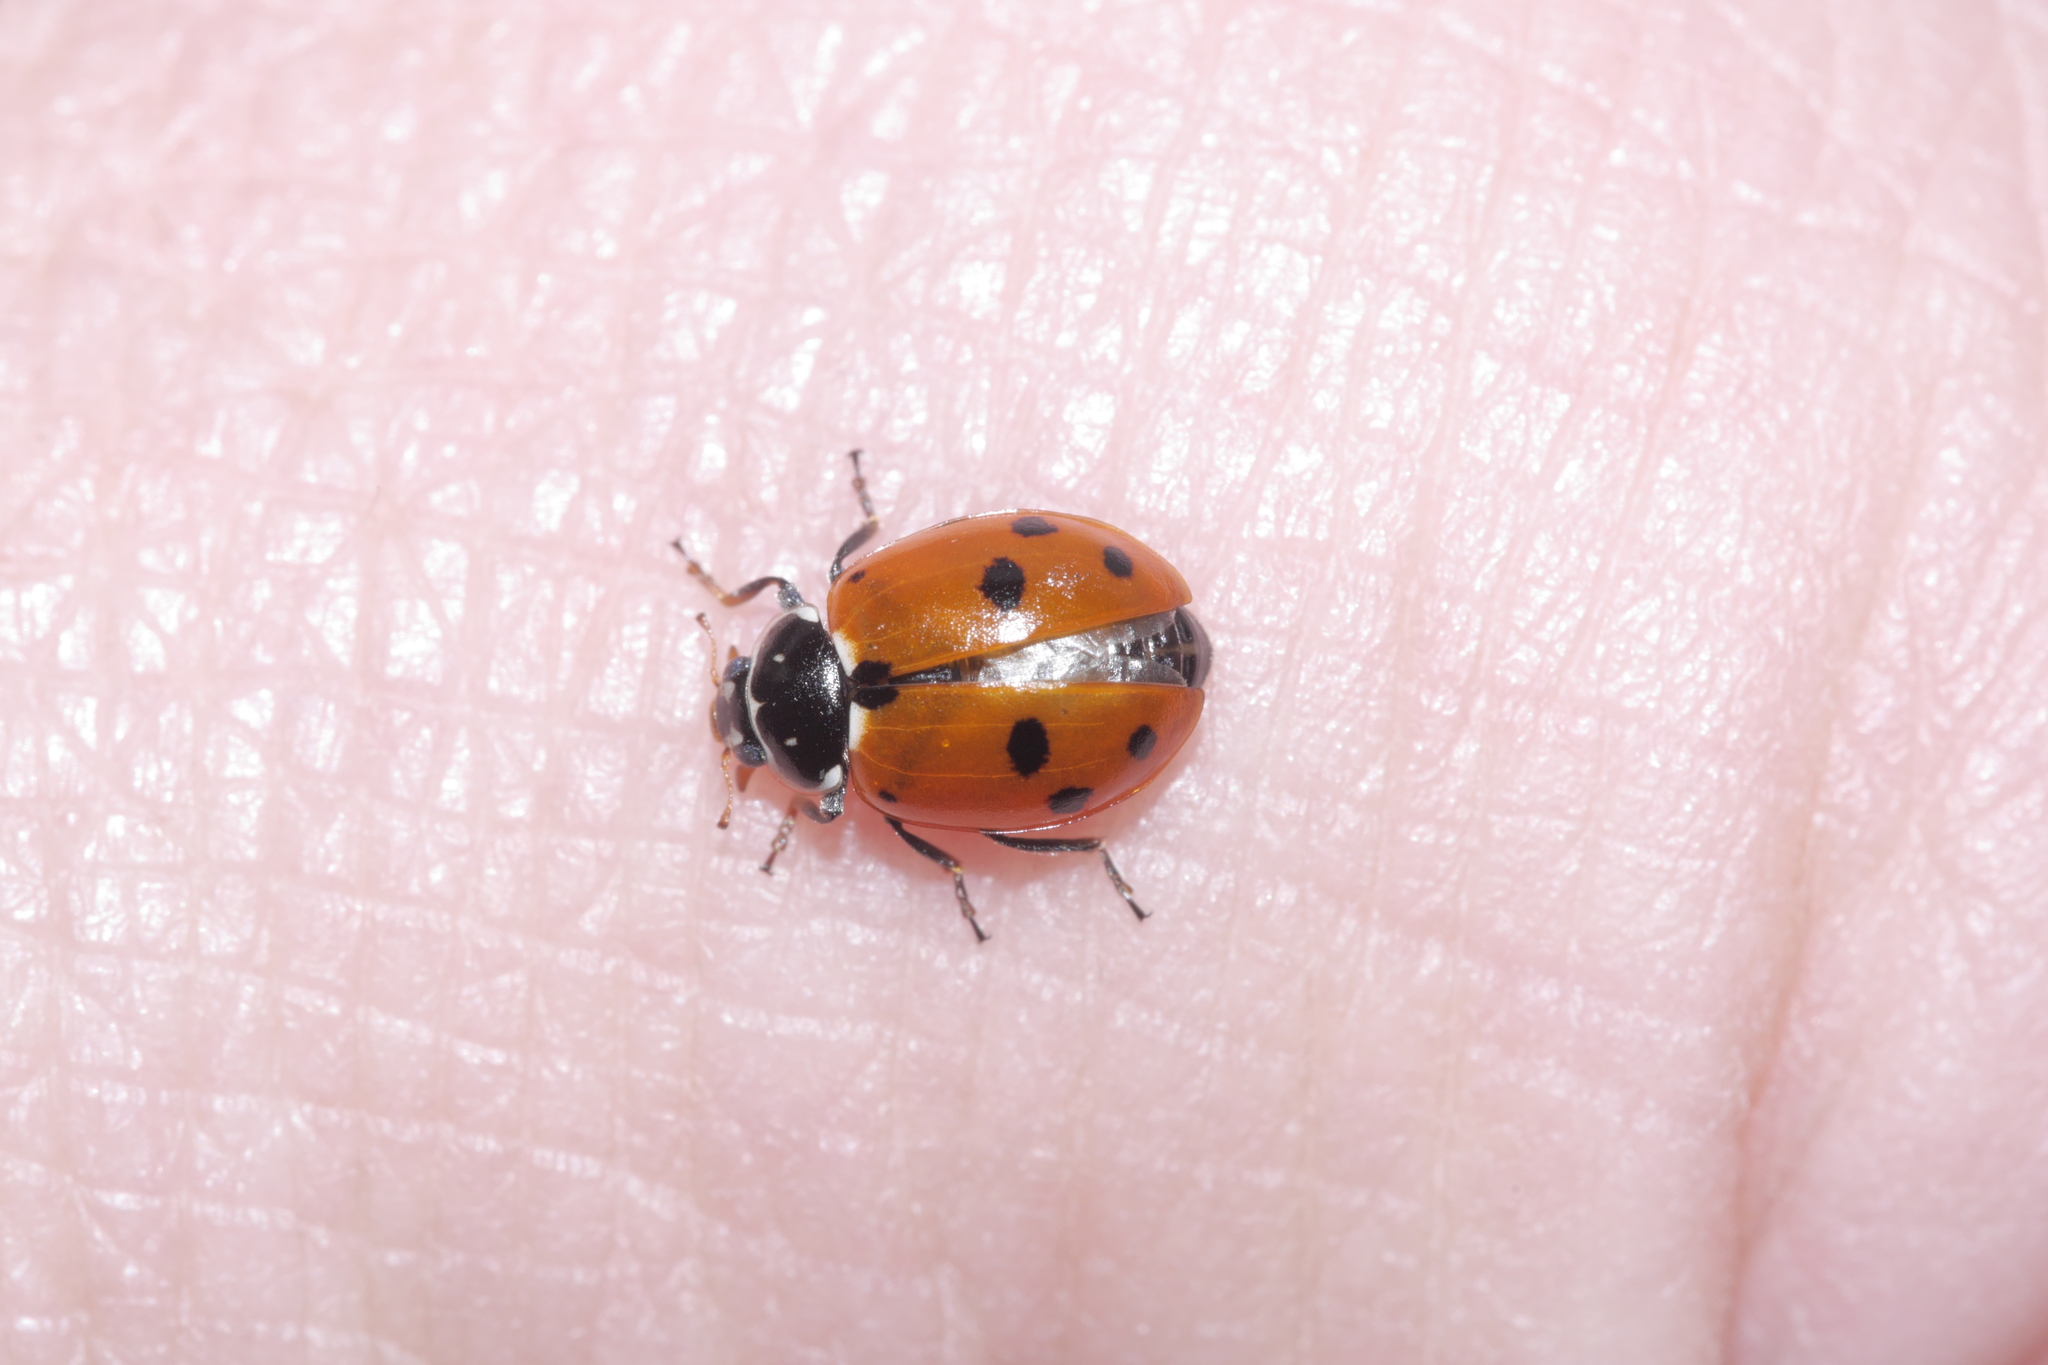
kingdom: Animalia
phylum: Arthropoda
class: Insecta
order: Coleoptera
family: Coccinellidae
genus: Hippodamia
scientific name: Hippodamia variegata
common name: Ladybird beetle
